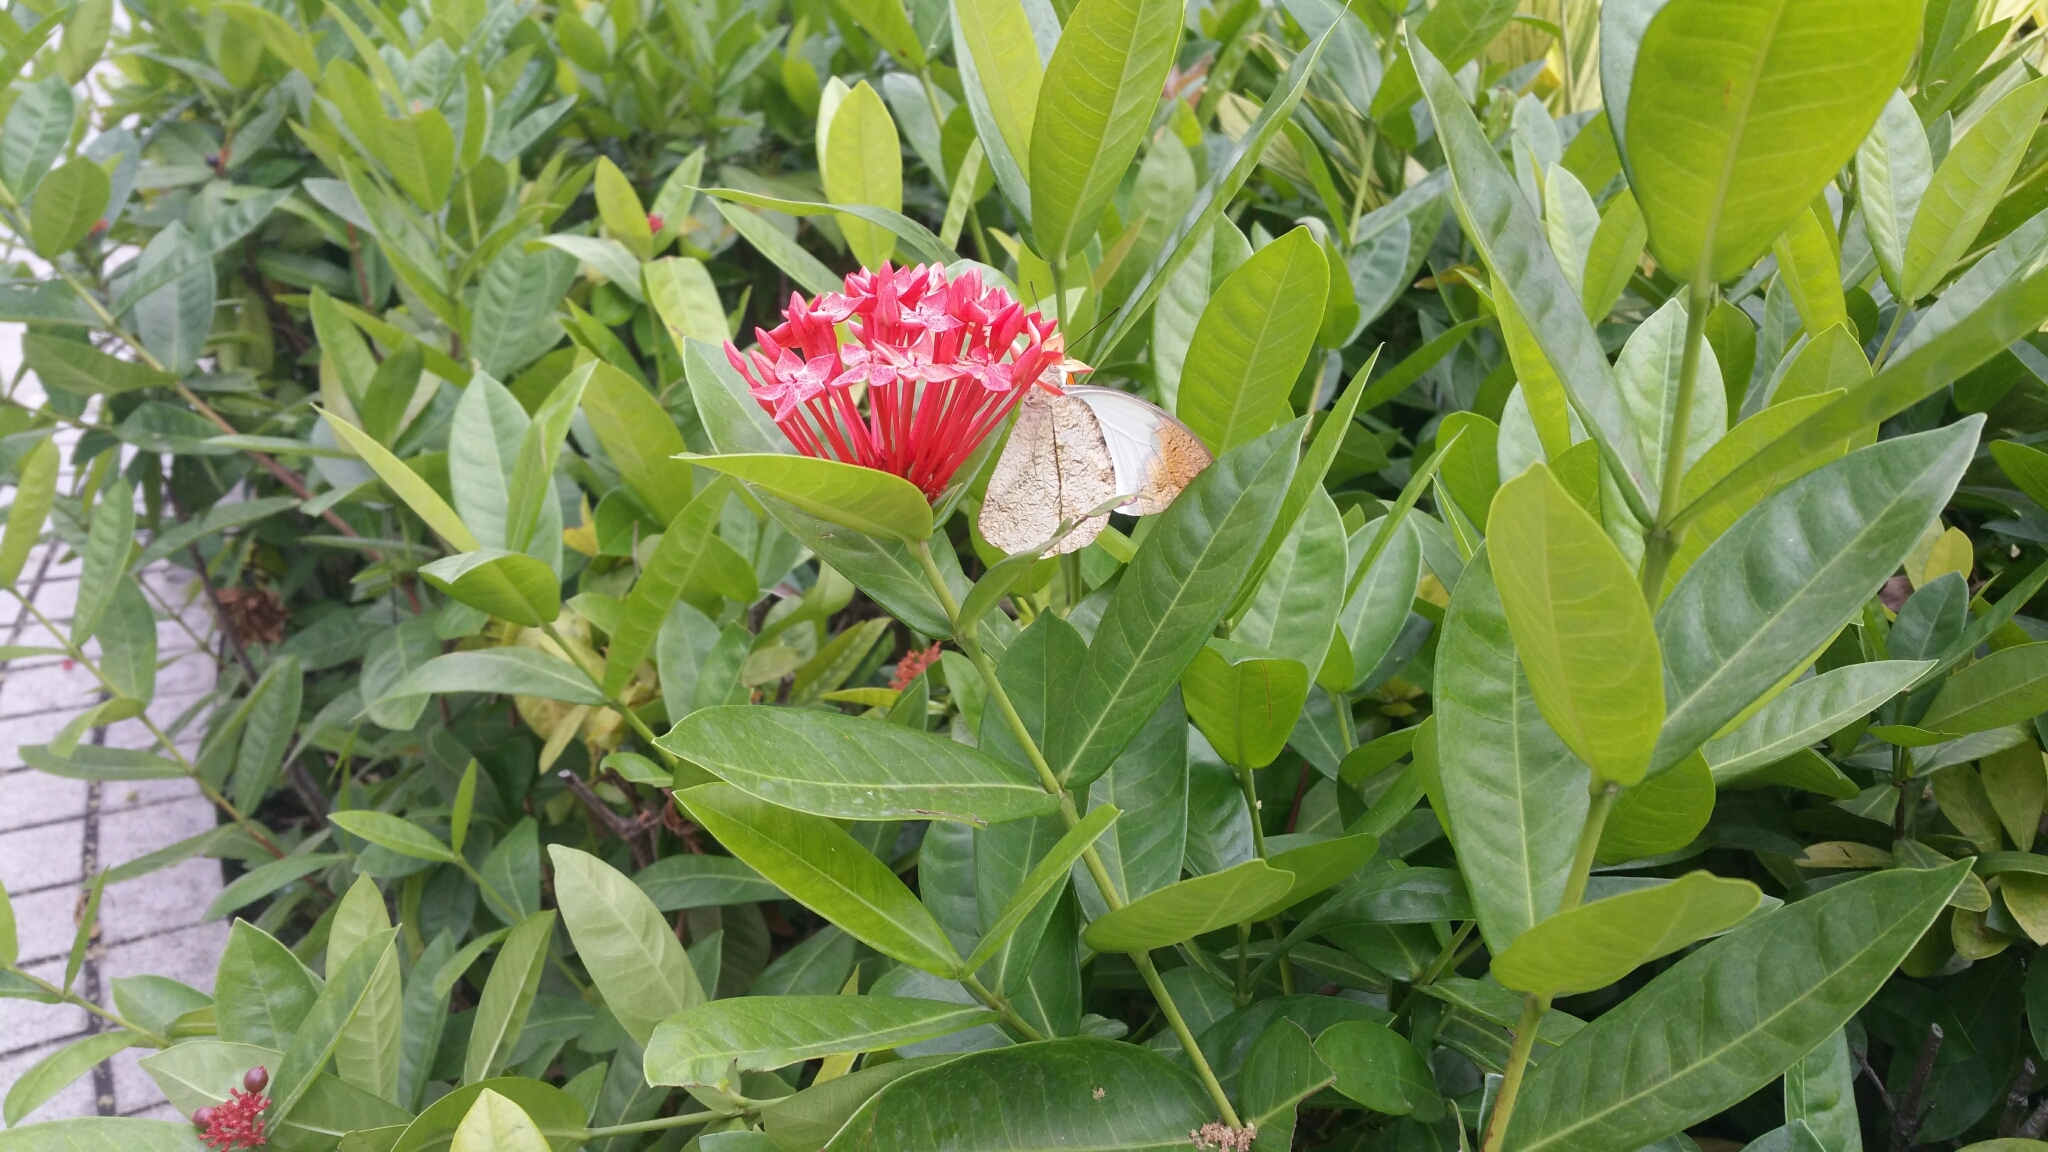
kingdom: Animalia
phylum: Arthropoda
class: Insecta
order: Lepidoptera
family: Pieridae
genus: Hebomoia
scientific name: Hebomoia glaucippe
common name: Great orange tip
